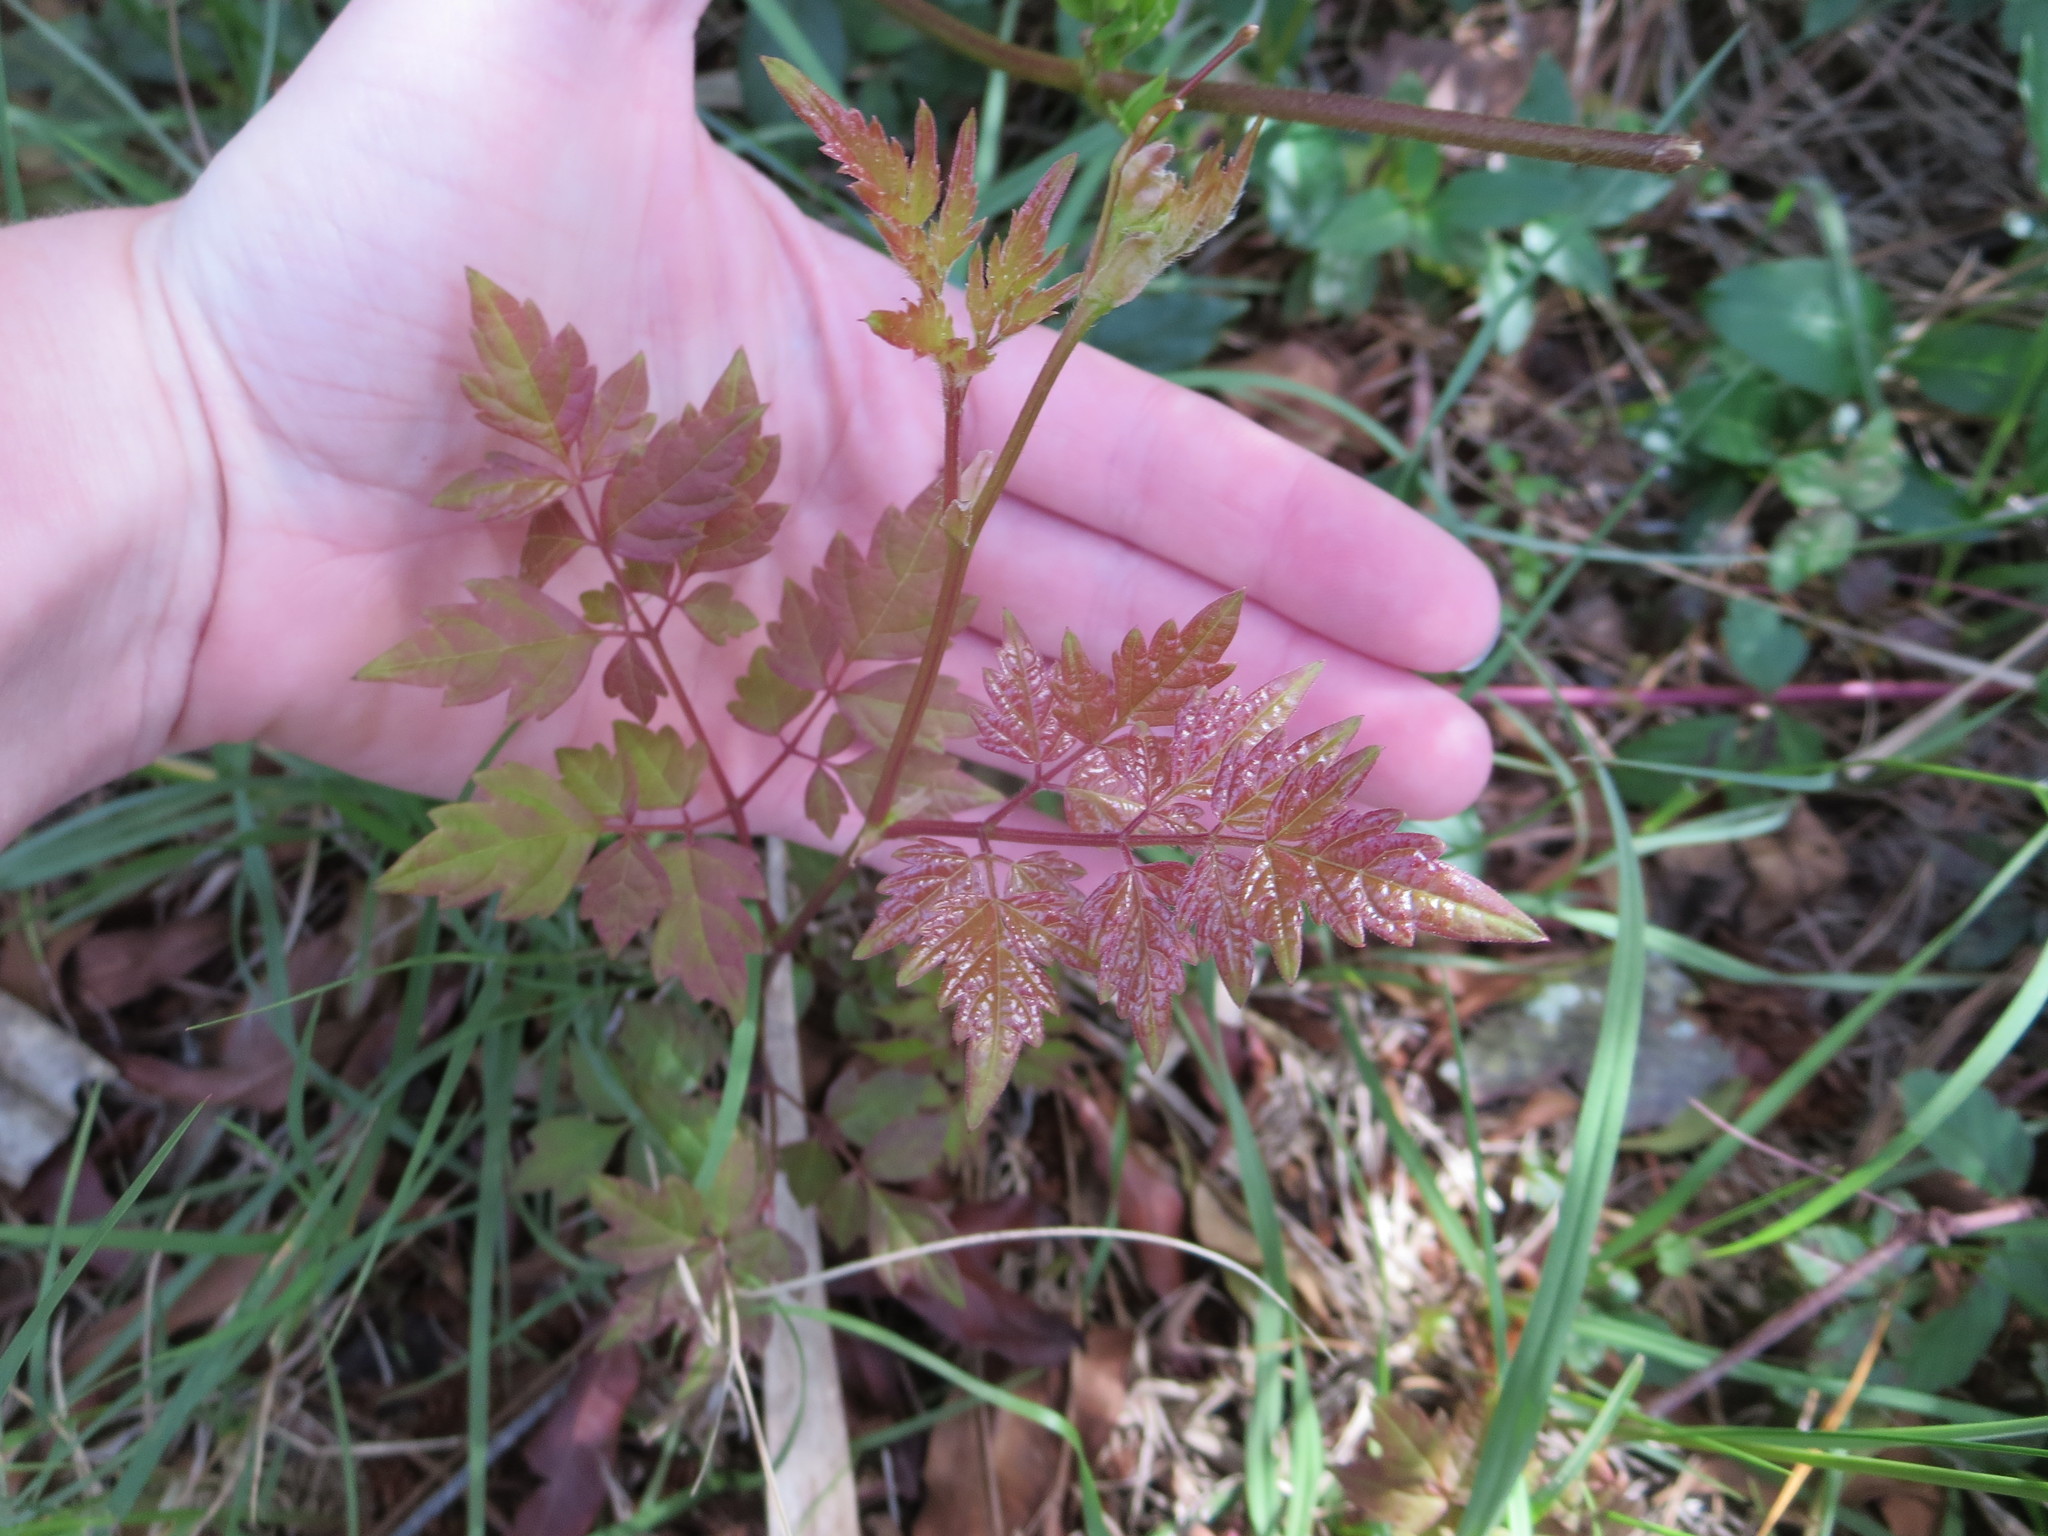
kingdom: Plantae
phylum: Tracheophyta
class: Magnoliopsida
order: Vitales
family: Vitaceae
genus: Nekemias
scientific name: Nekemias arborea
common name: Peppervine
